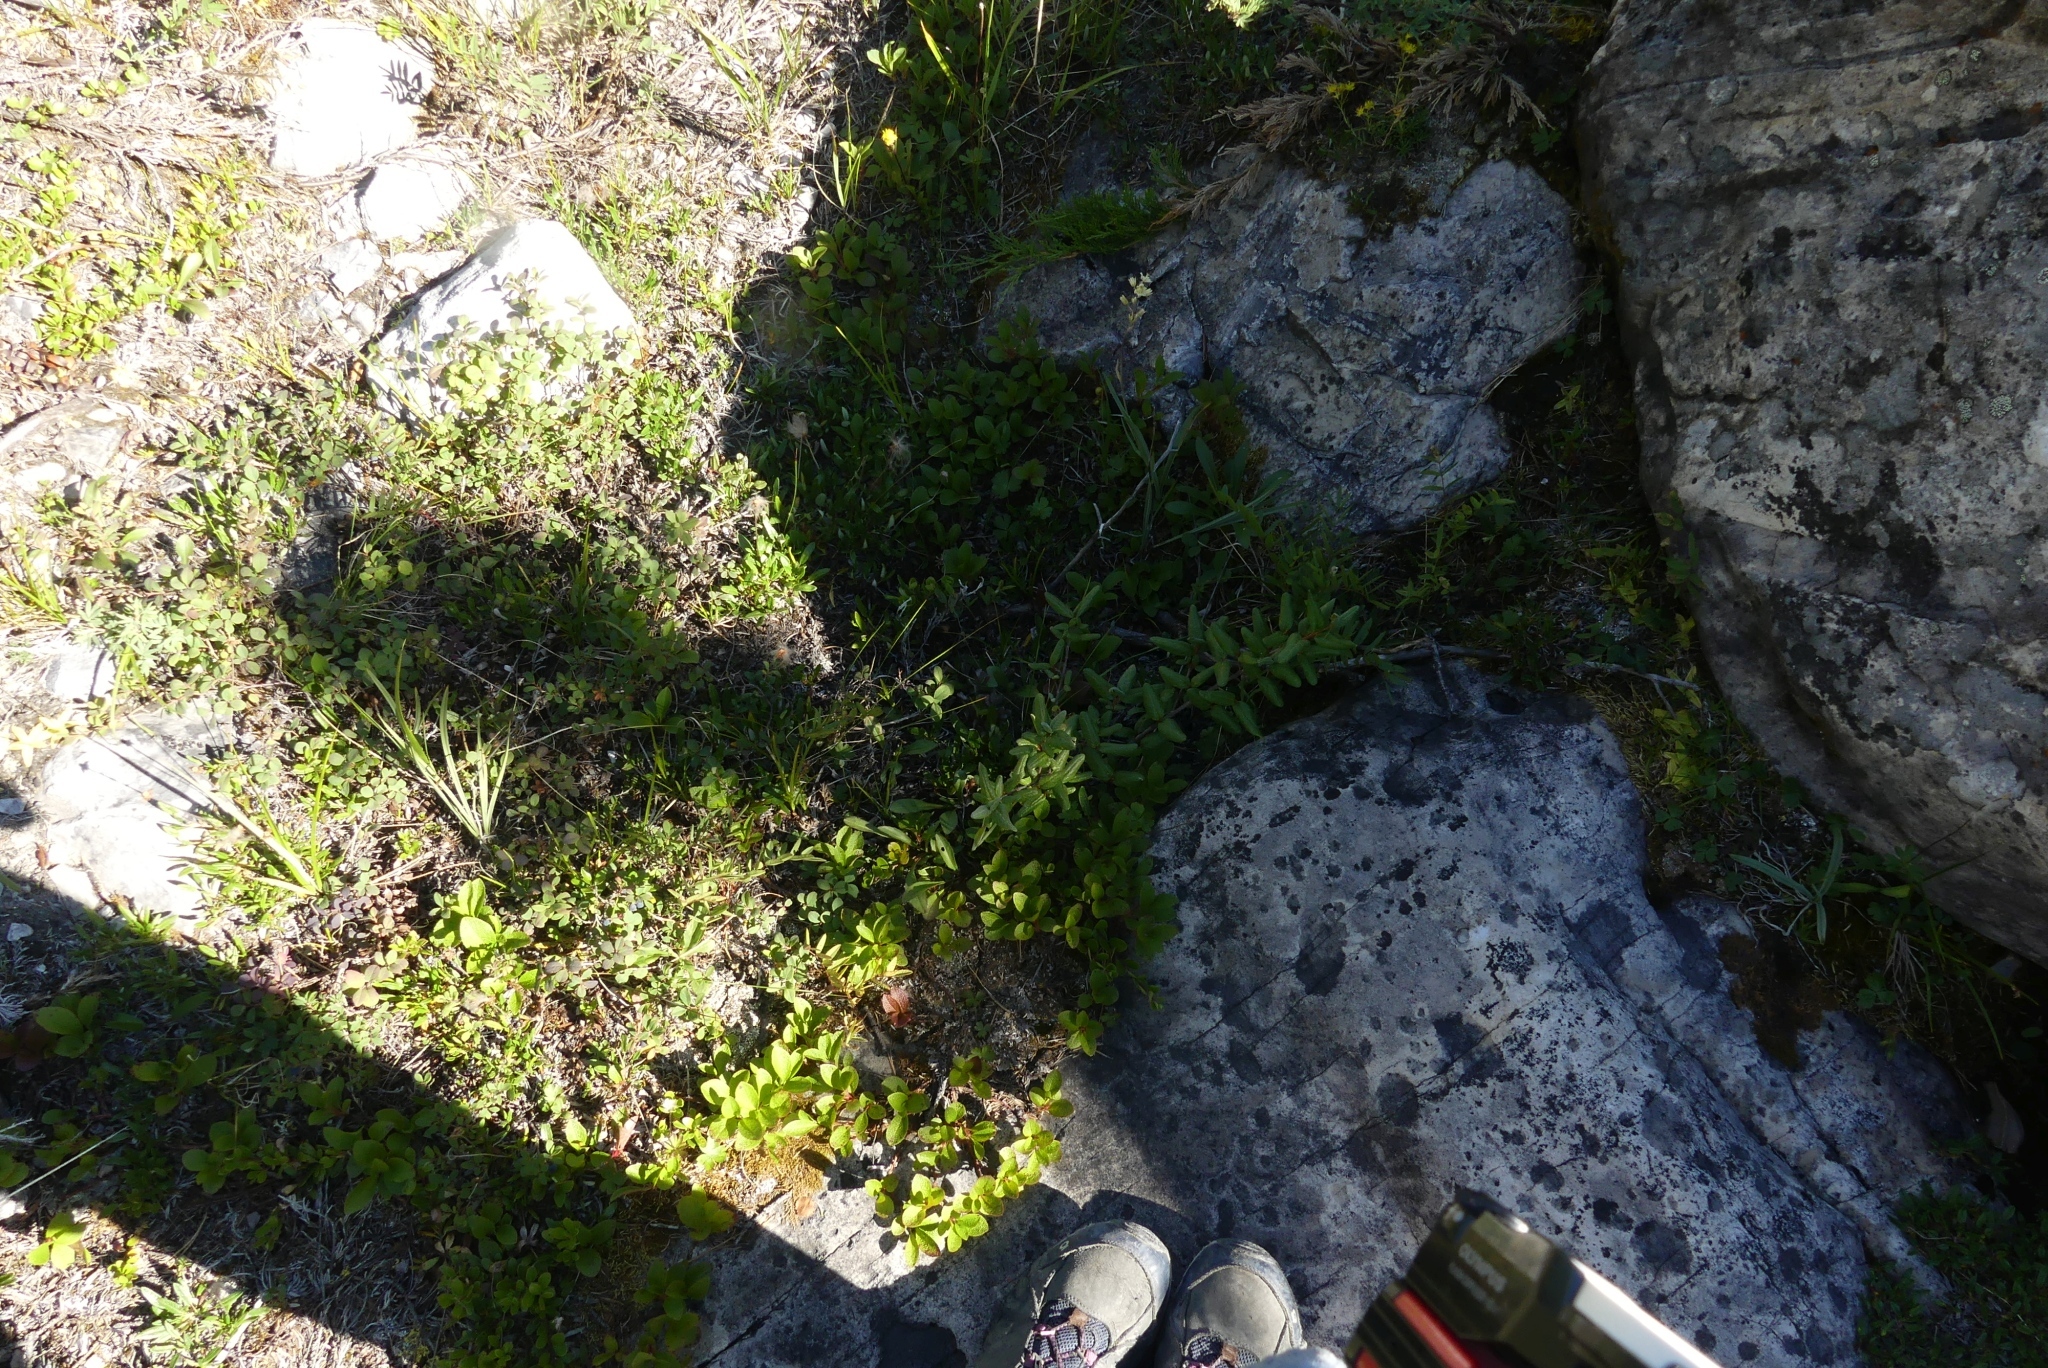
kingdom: Plantae
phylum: Tracheophyta
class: Magnoliopsida
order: Rosales
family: Elaeagnaceae
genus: Shepherdia
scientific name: Shepherdia canadensis
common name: Soapberry
